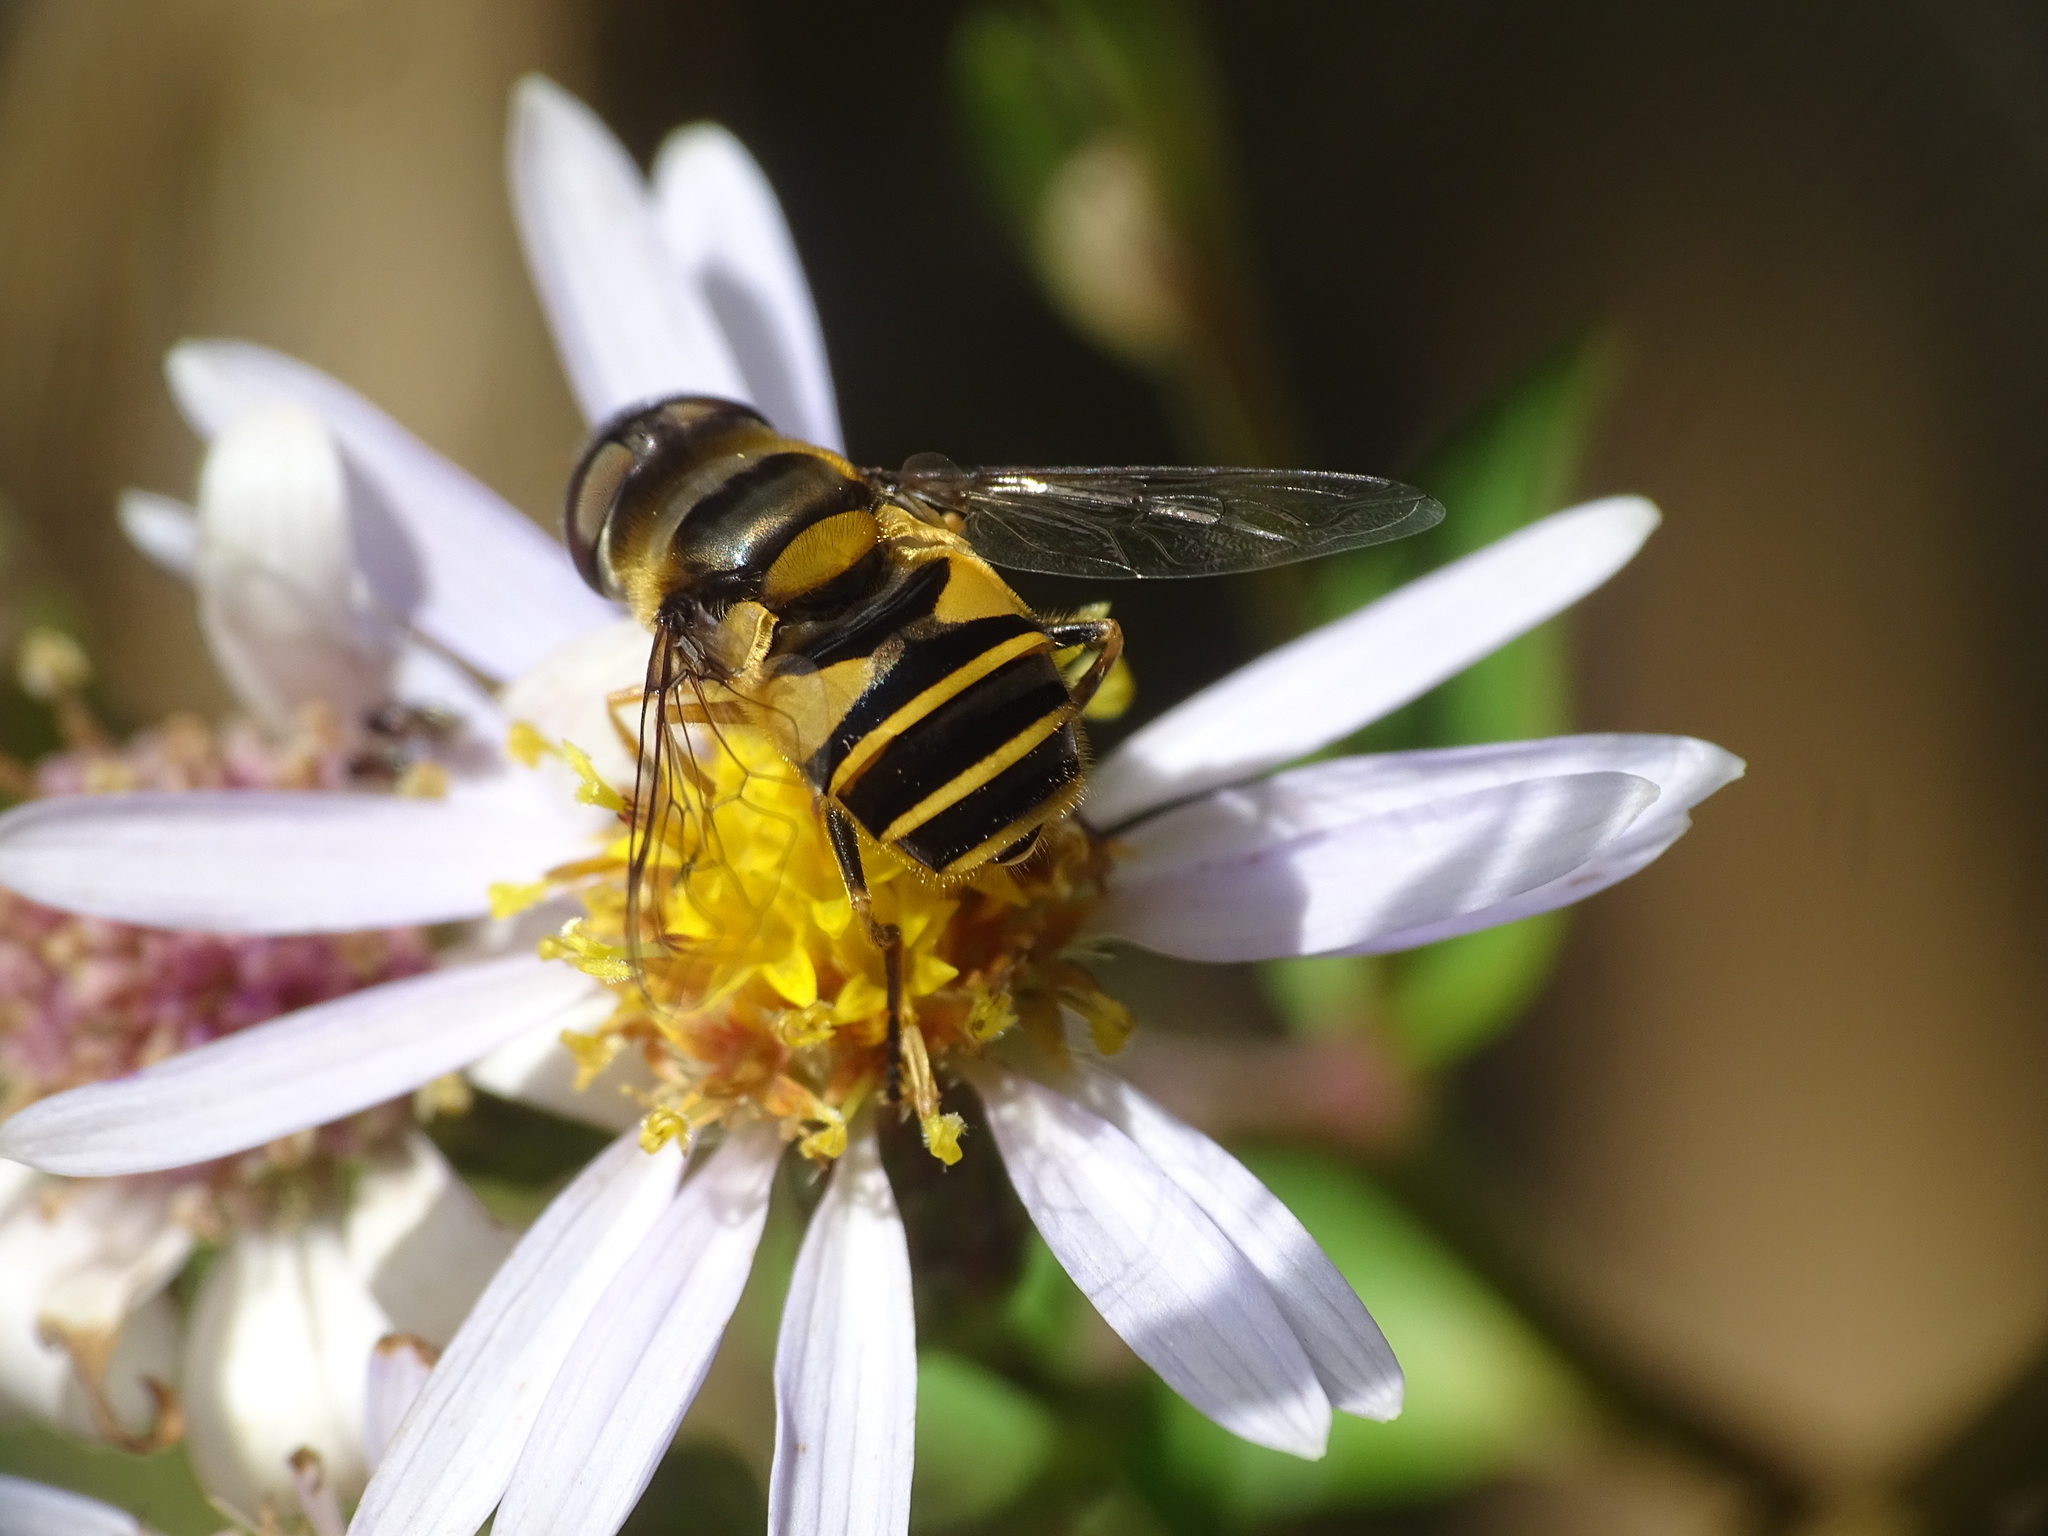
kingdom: Animalia
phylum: Arthropoda
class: Insecta
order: Diptera
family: Syrphidae
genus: Eristalis
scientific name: Eristalis transversa
